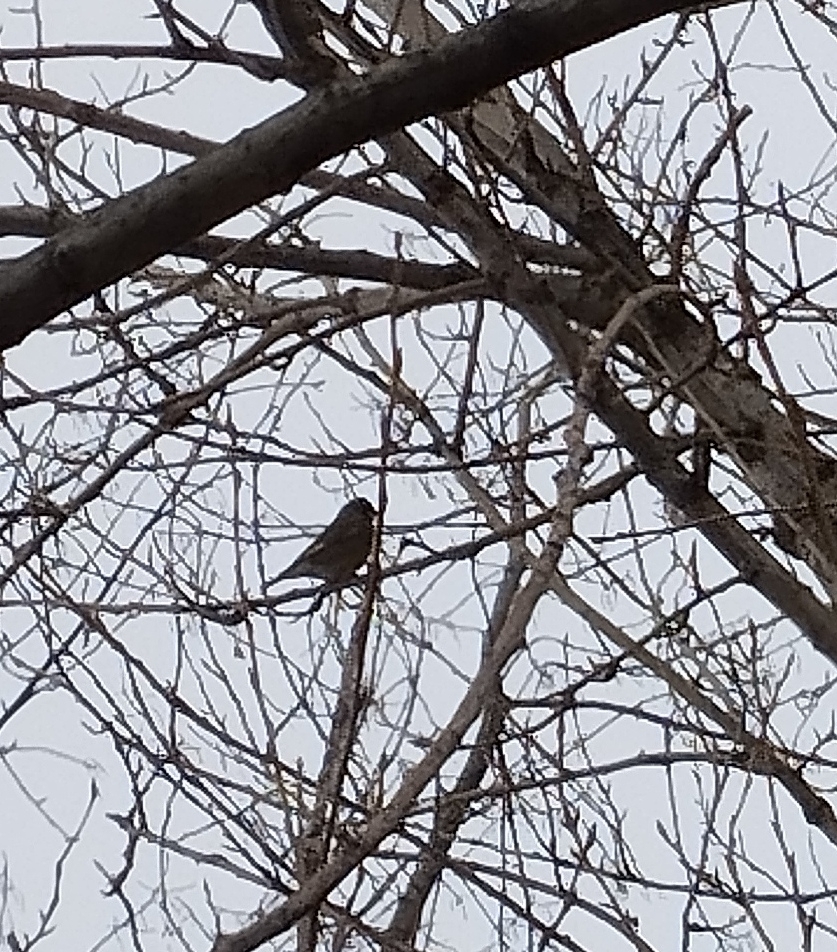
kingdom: Plantae
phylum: Tracheophyta
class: Liliopsida
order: Poales
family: Poaceae
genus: Chloris
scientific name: Chloris chloris
